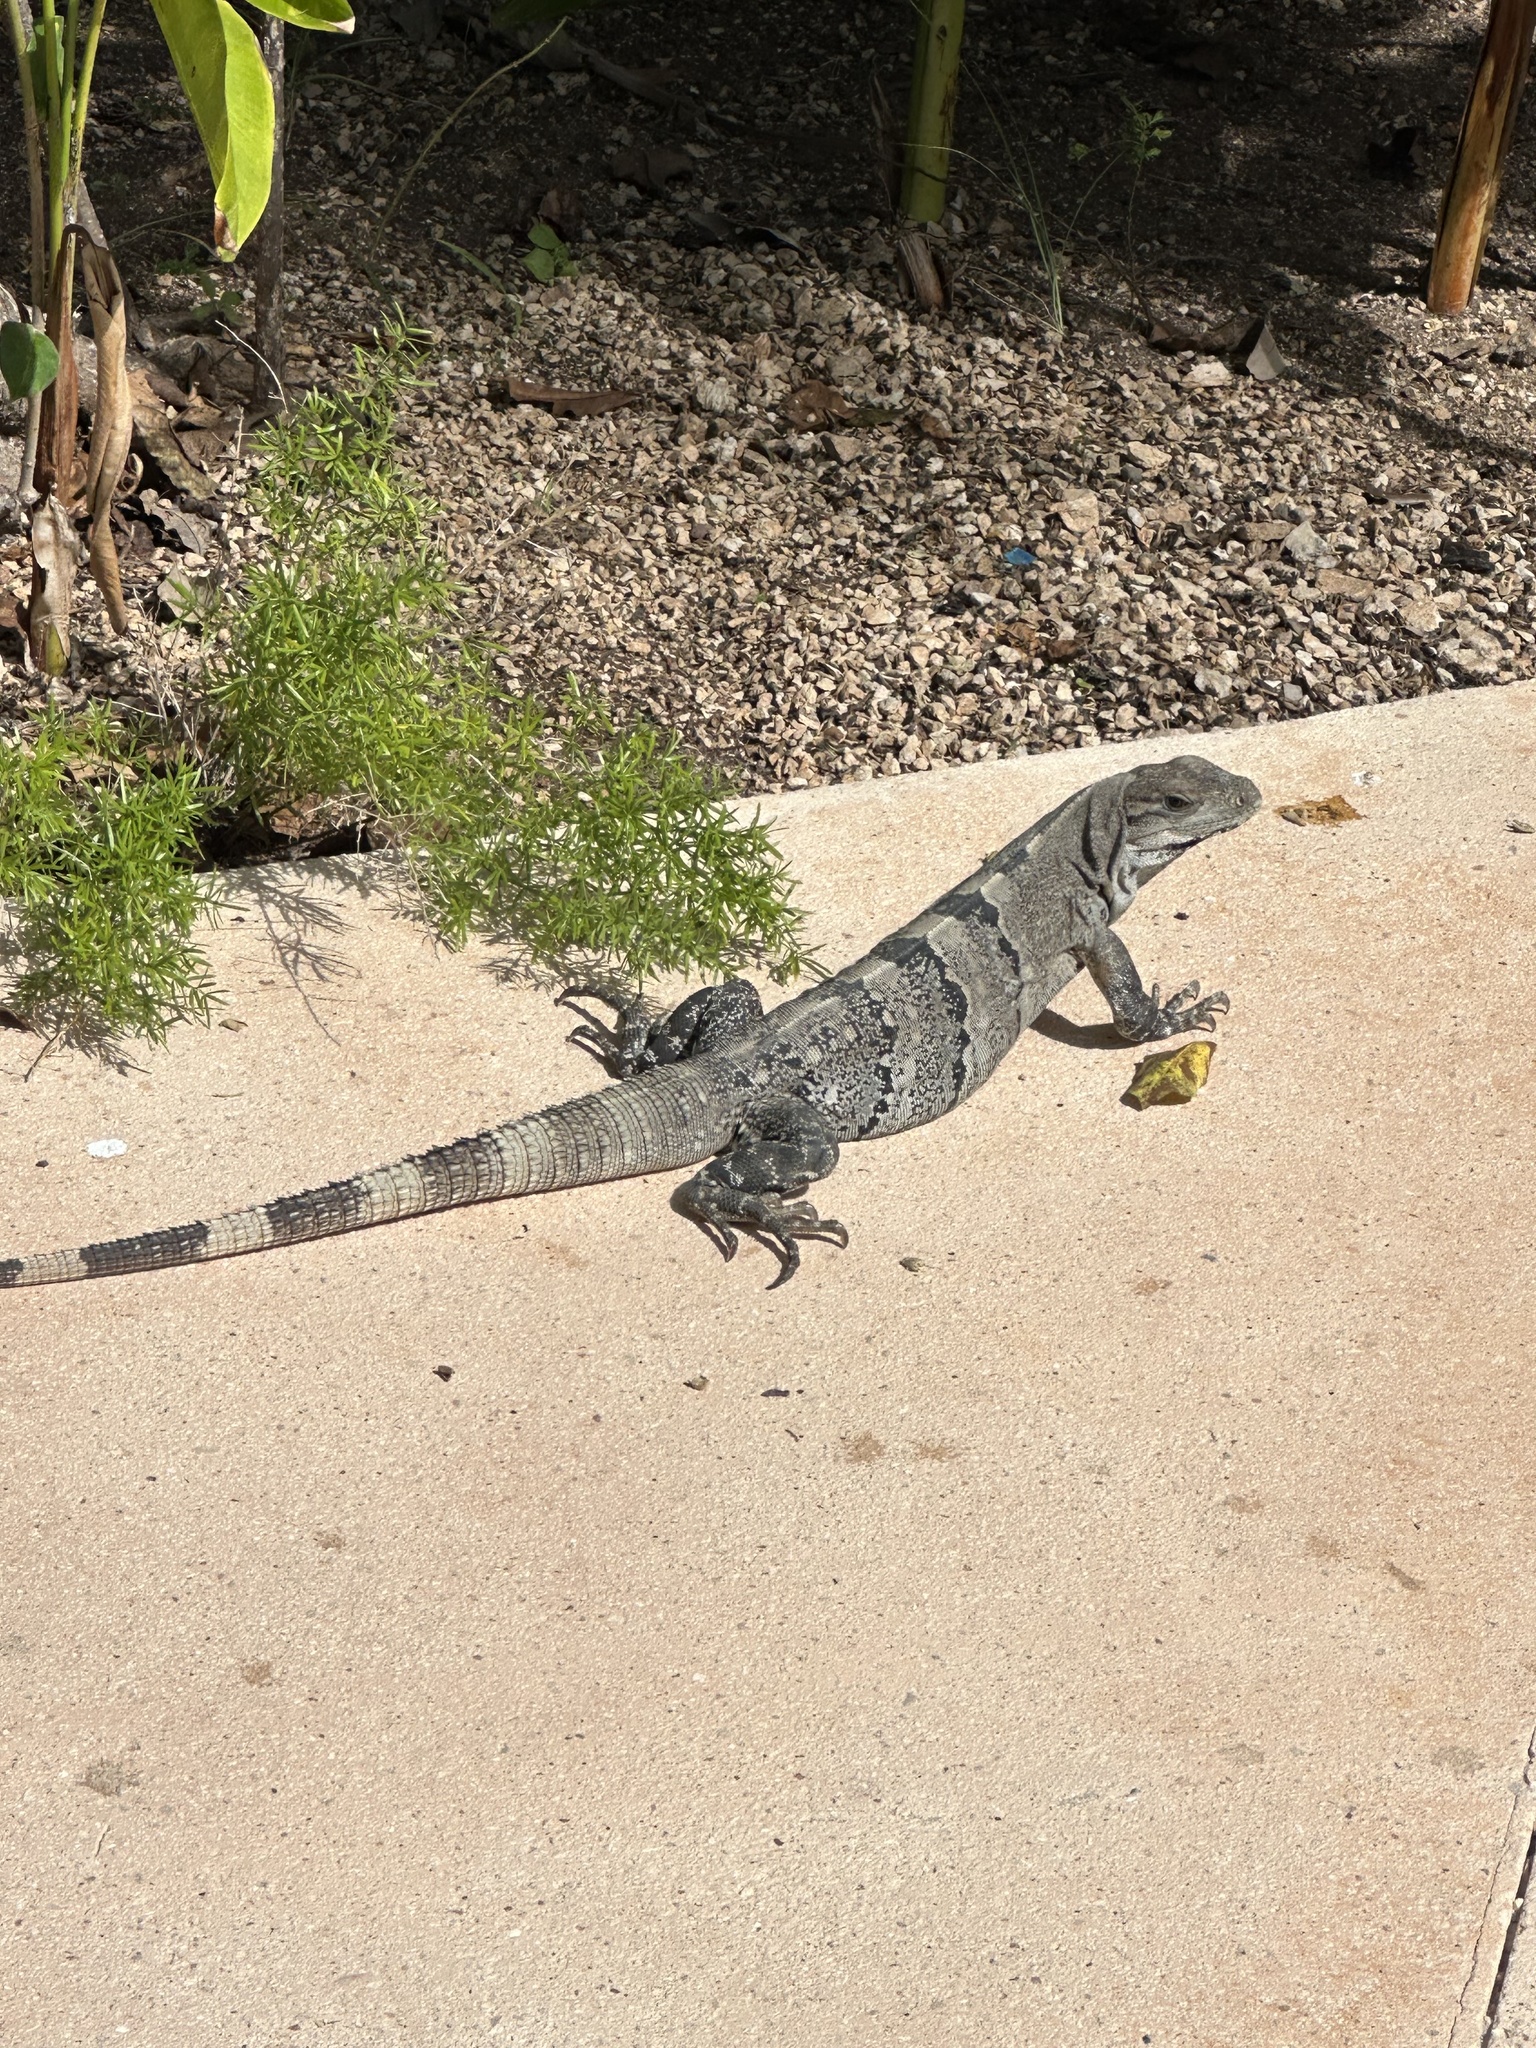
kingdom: Animalia
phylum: Chordata
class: Squamata
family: Iguanidae
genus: Ctenosaura
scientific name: Ctenosaura similis
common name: Black spiny-tailed iguana
